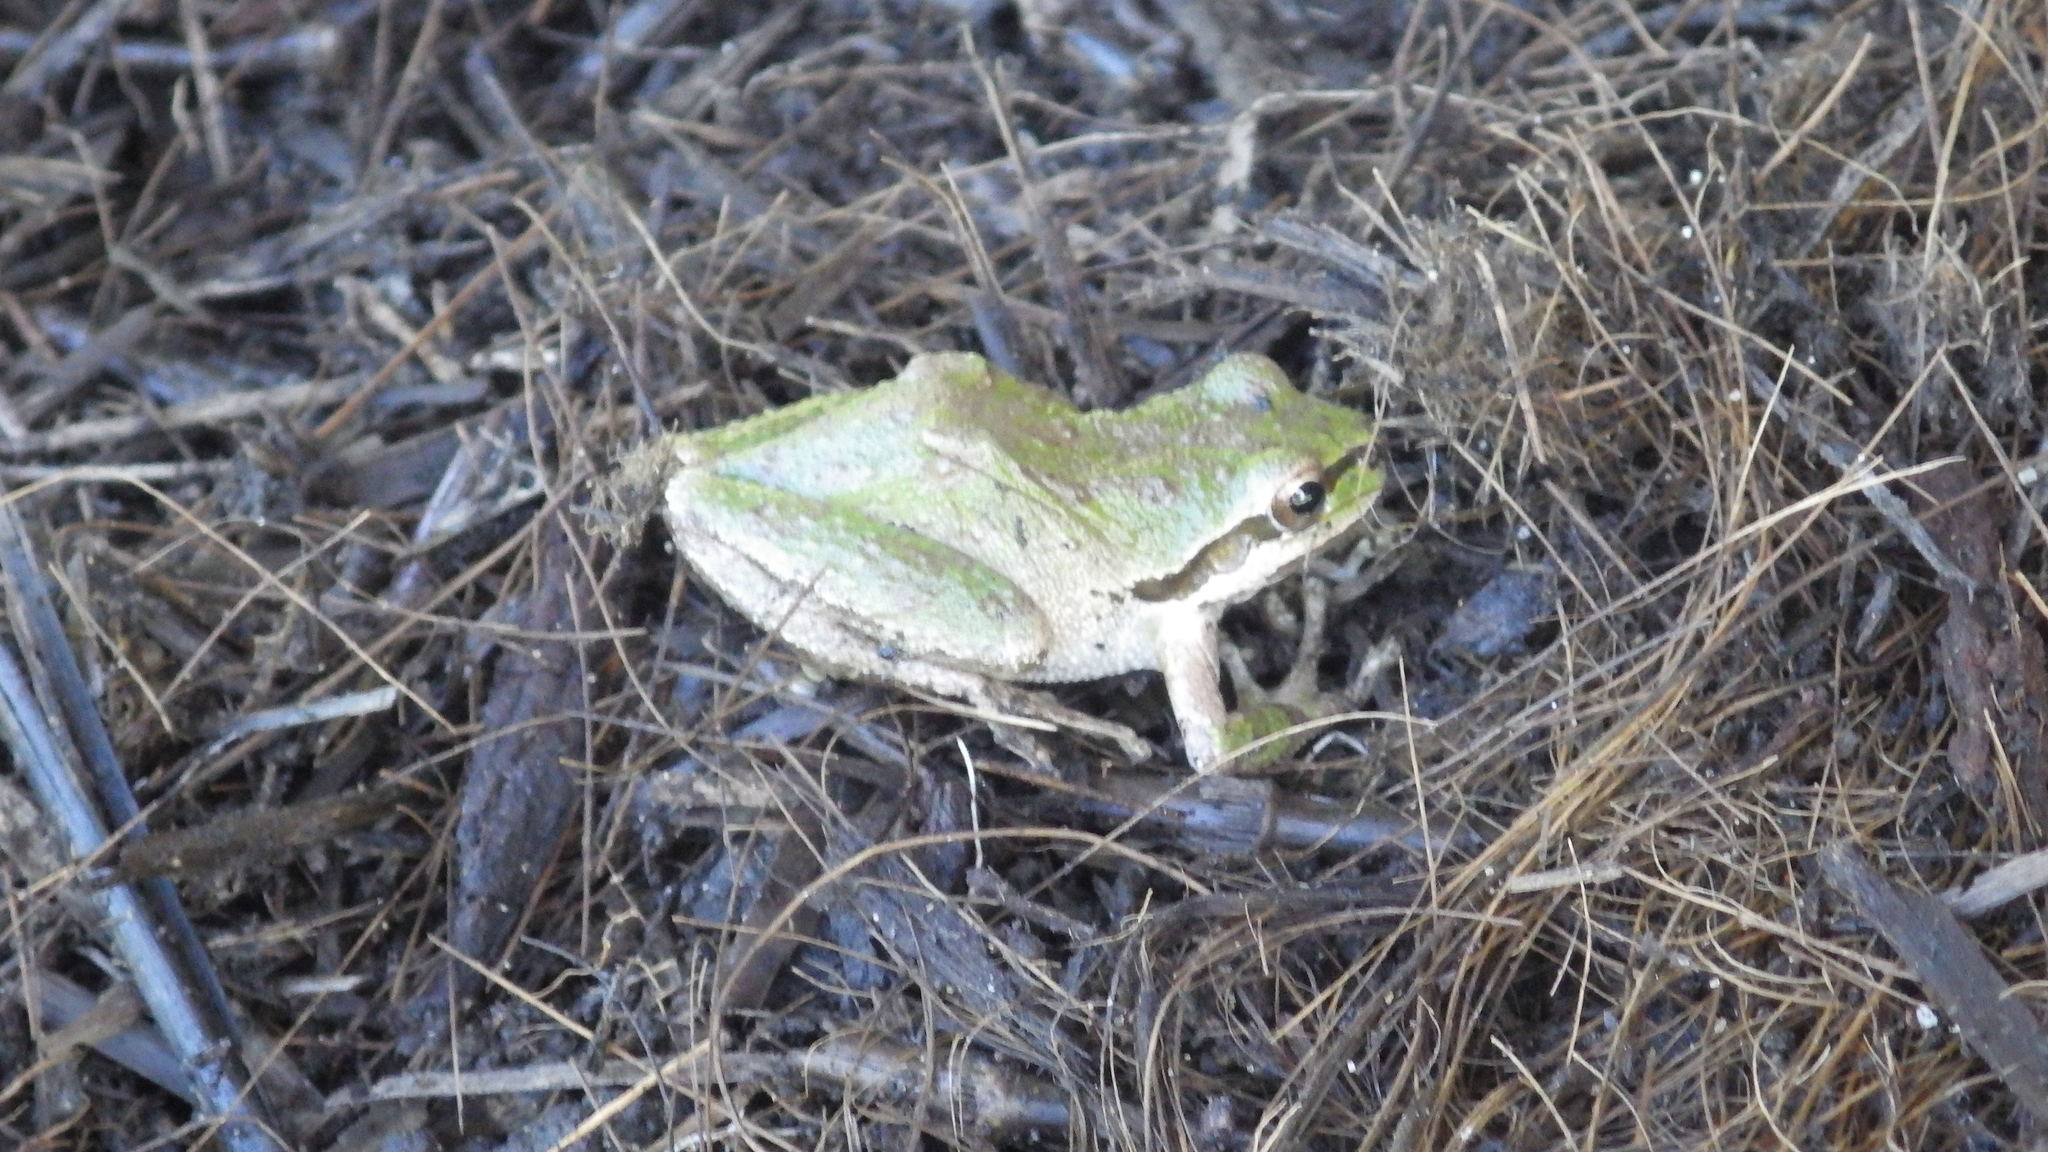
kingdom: Animalia
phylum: Chordata
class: Amphibia
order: Anura
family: Hylidae
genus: Pseudacris
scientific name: Pseudacris regilla
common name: Pacific chorus frog
